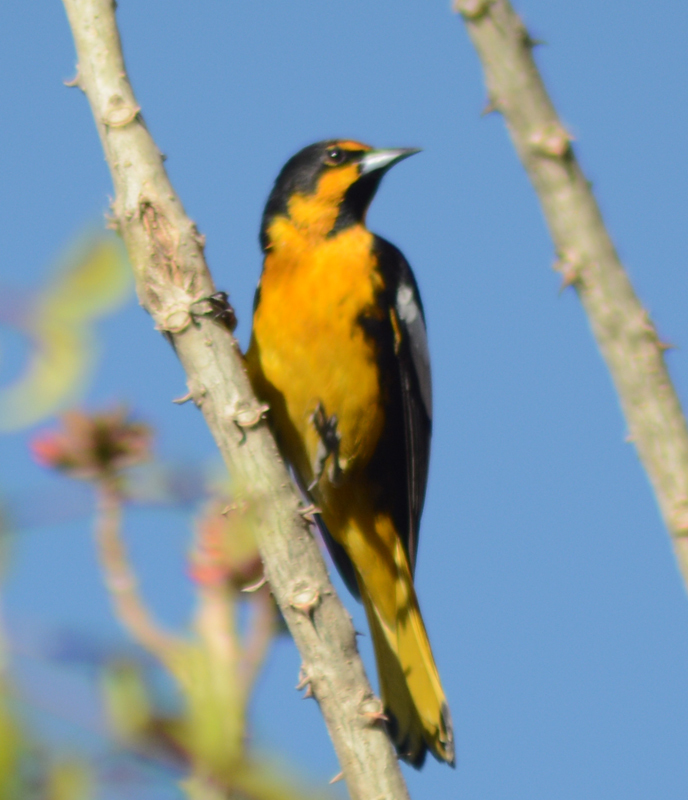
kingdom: Animalia
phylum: Chordata
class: Aves
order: Passeriformes
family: Icteridae
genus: Icterus
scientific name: Icterus abeillei
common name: Black-backed oriole
